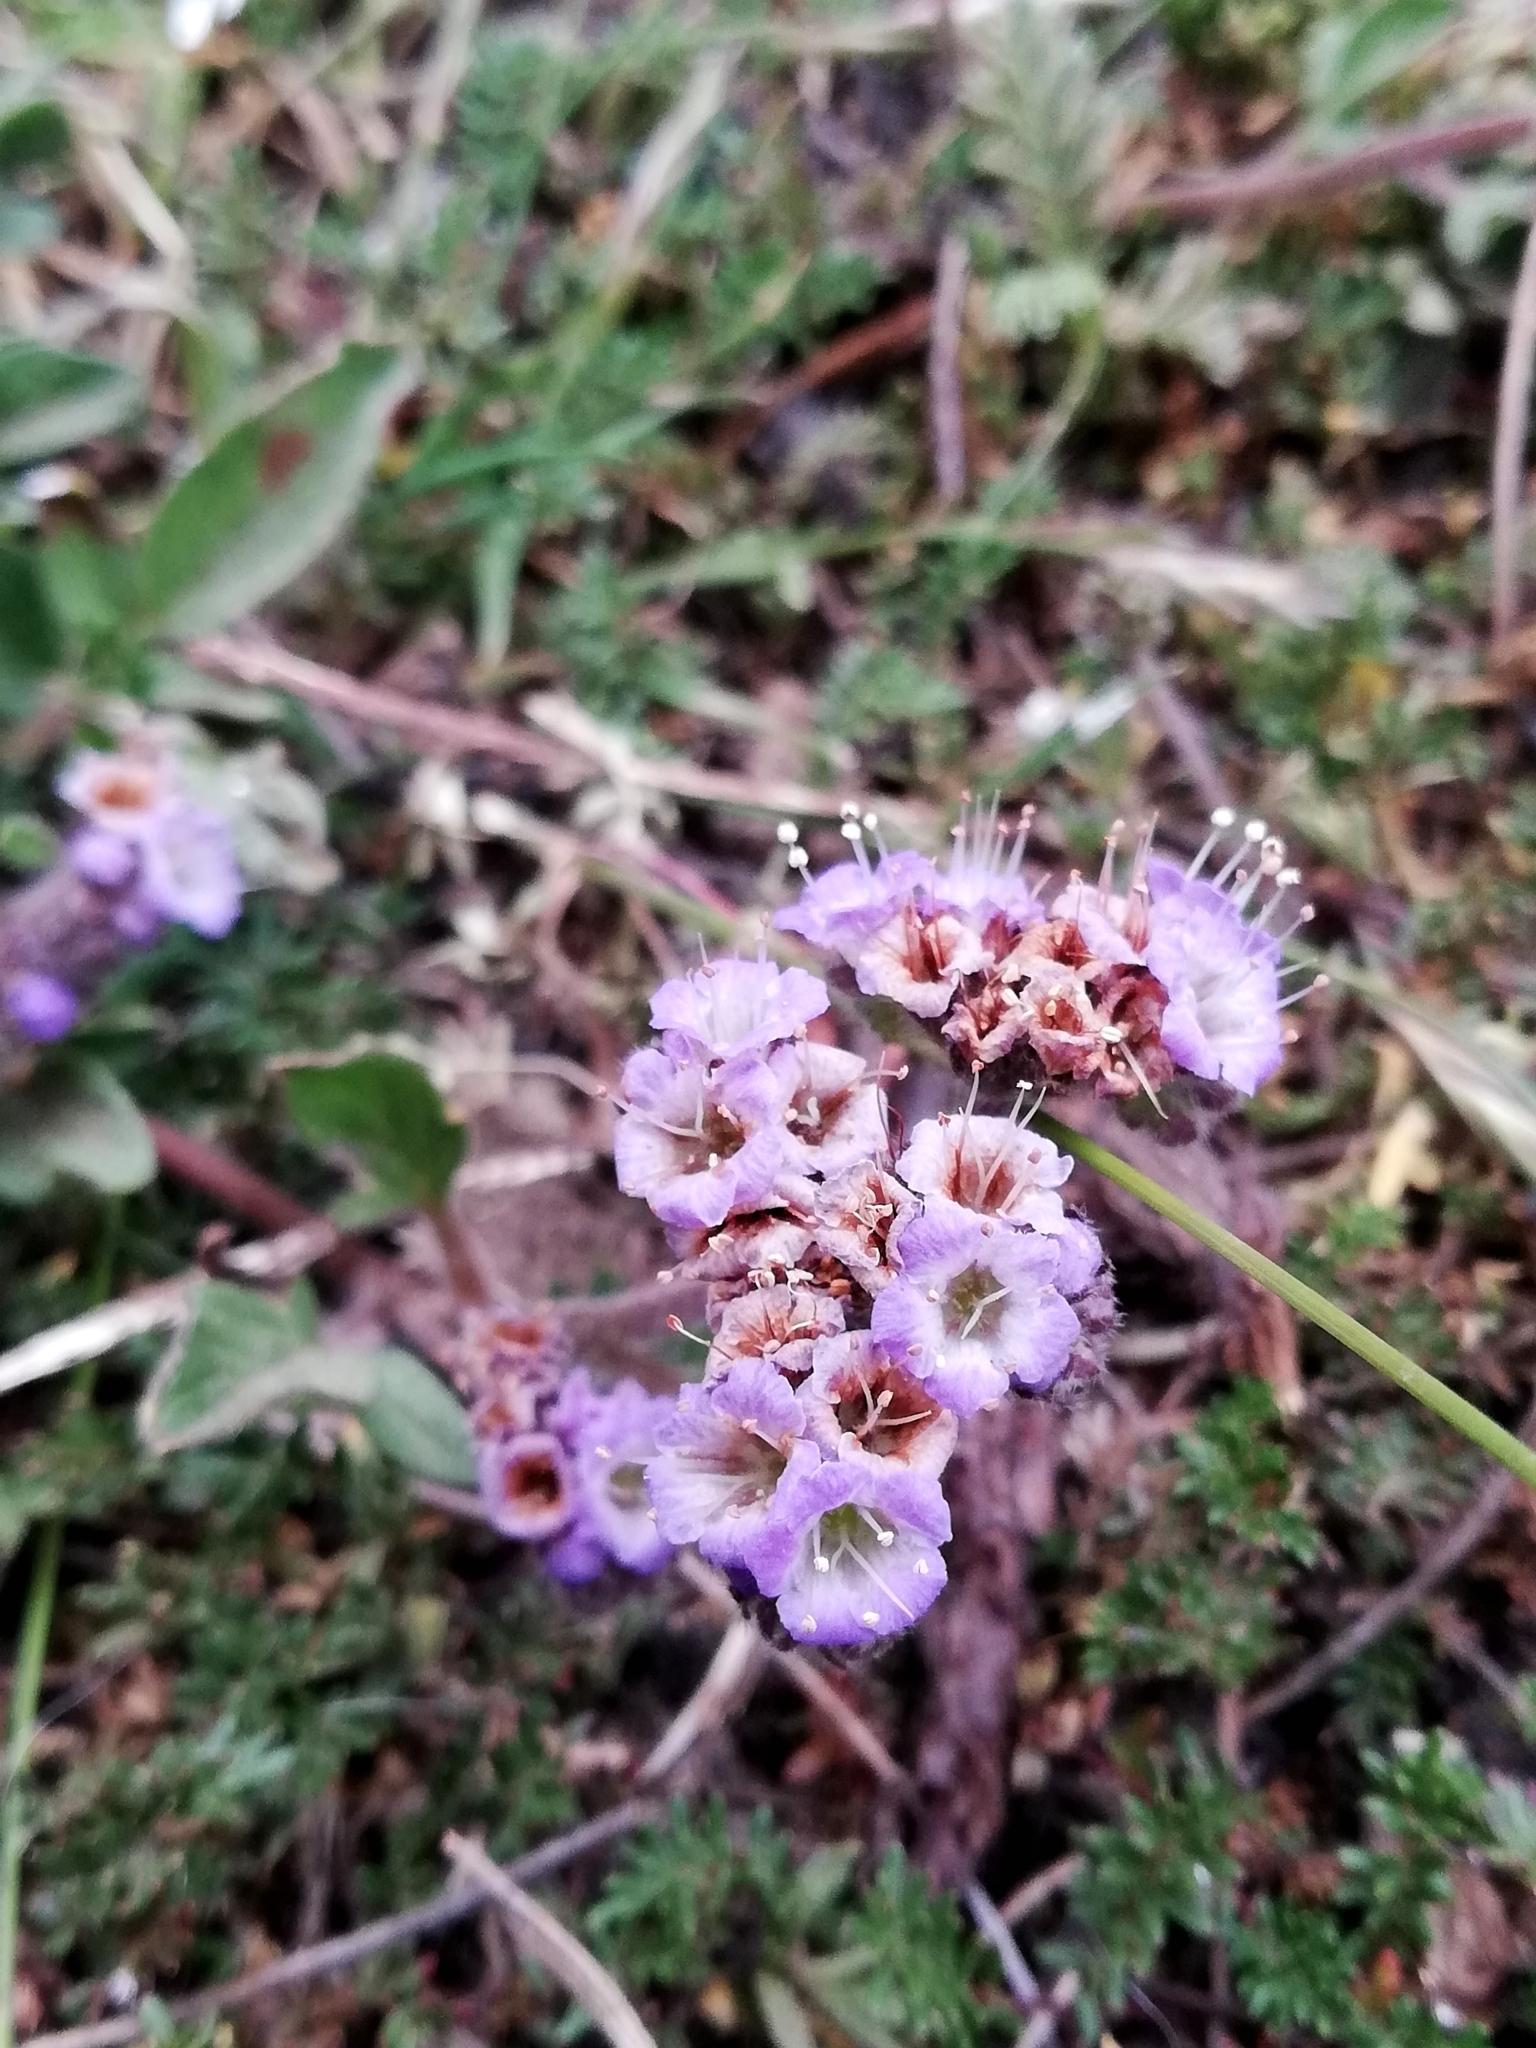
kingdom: Plantae
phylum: Tracheophyta
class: Magnoliopsida
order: Boraginales
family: Hydrophyllaceae
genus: Phacelia
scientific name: Phacelia secunda
